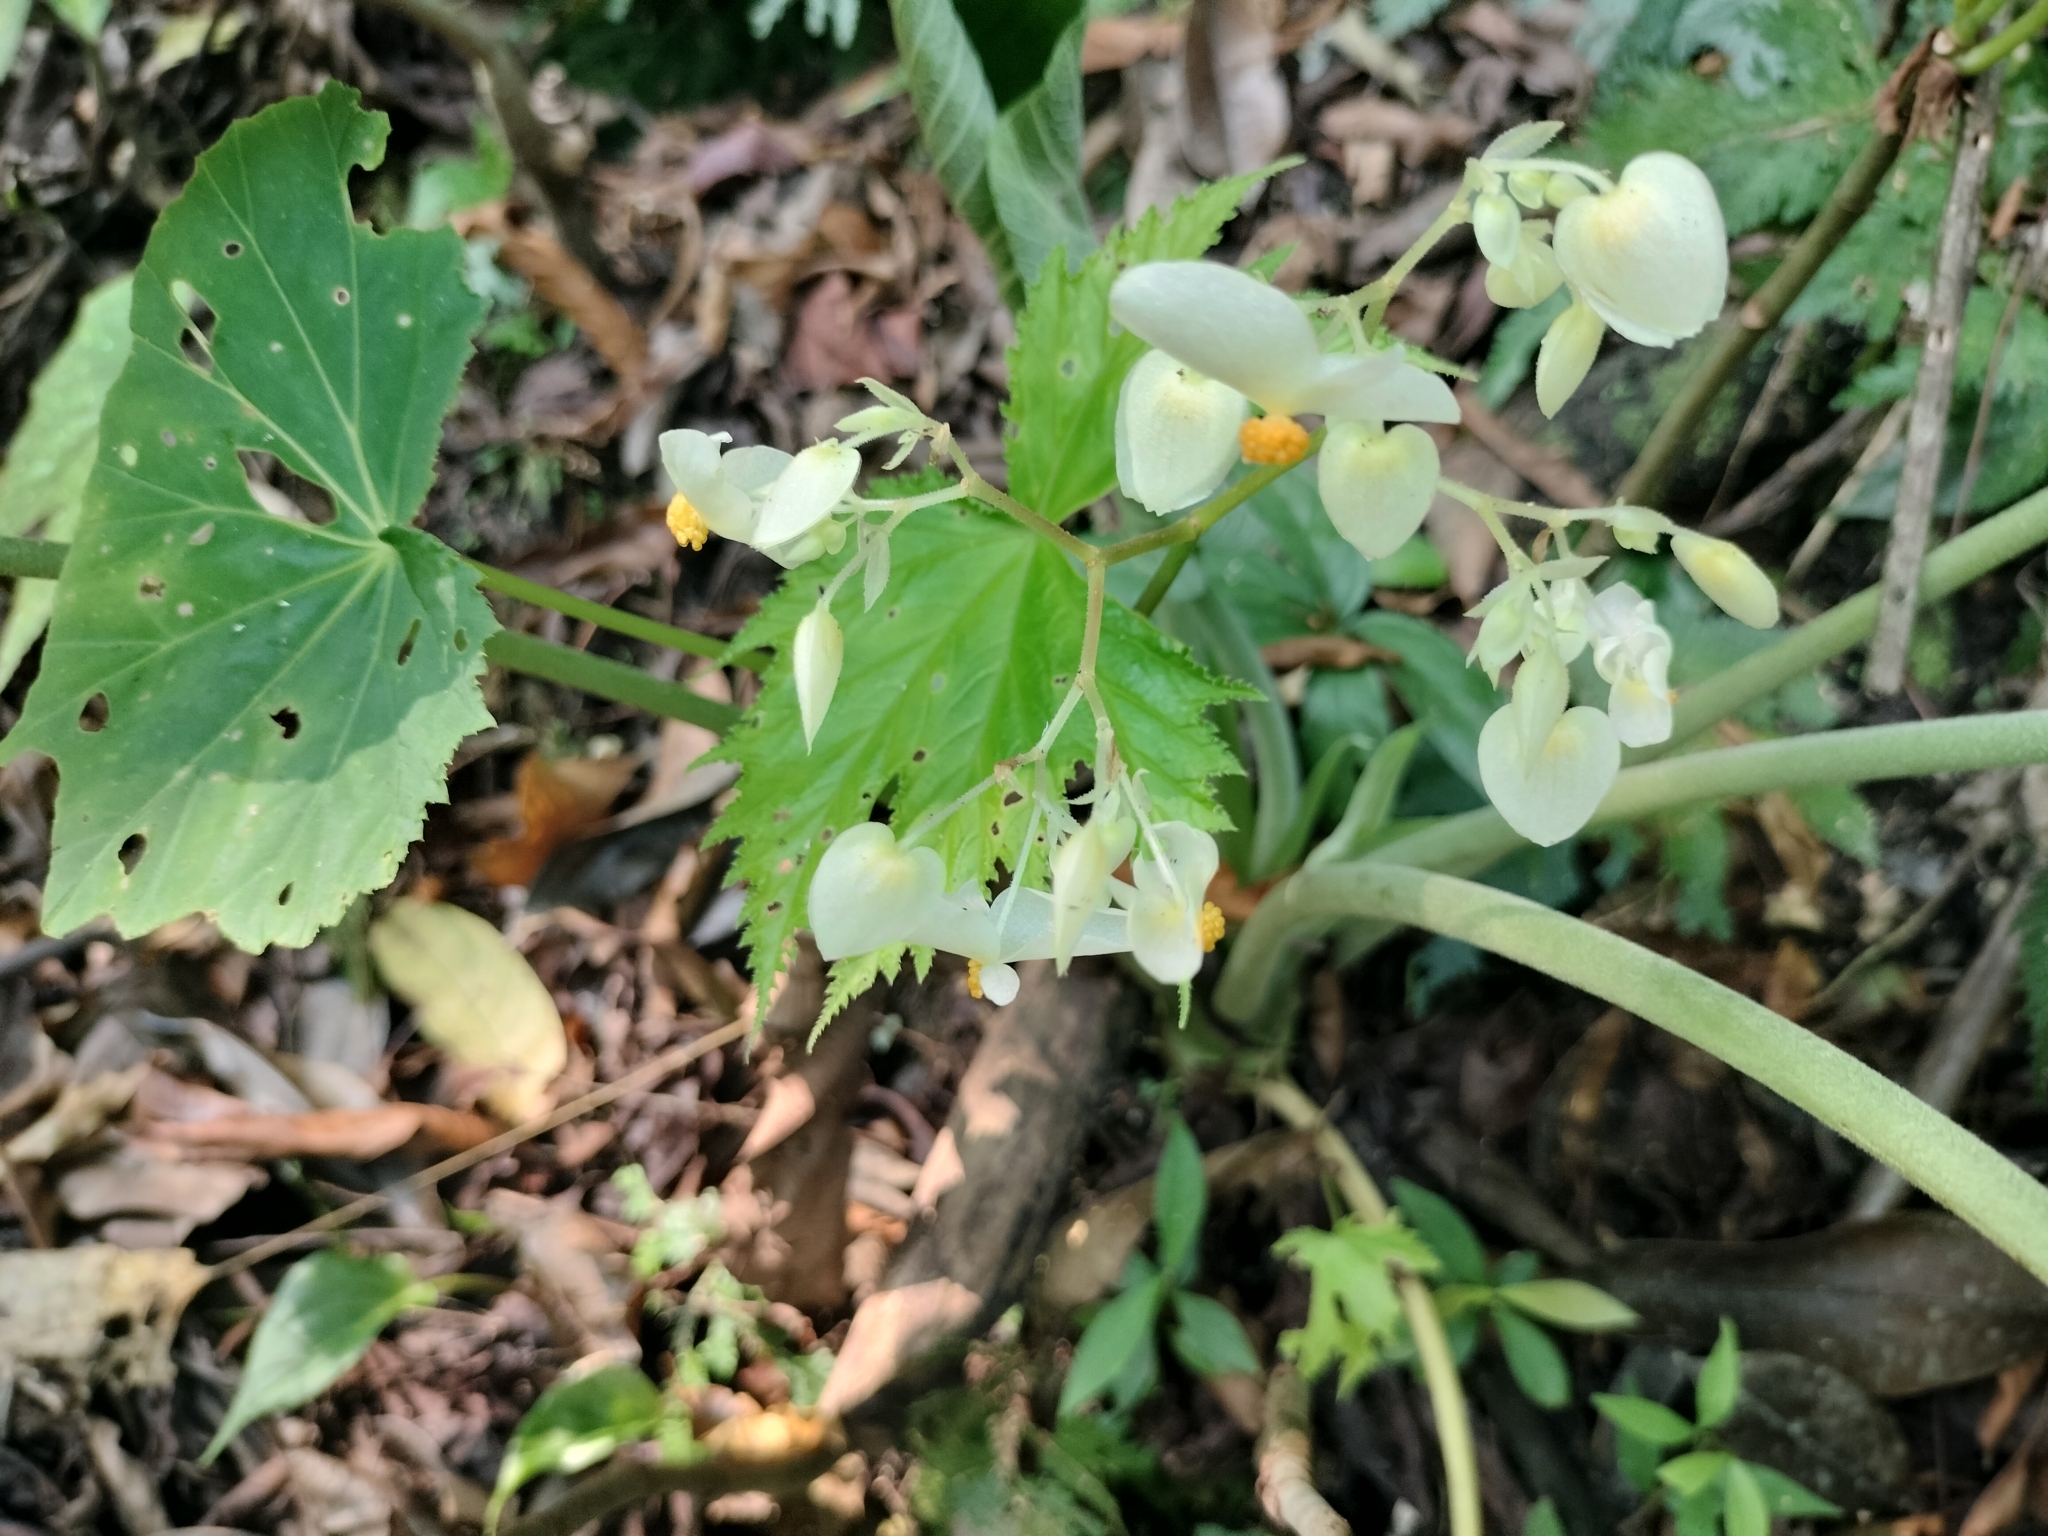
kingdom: Plantae
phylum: Tracheophyta
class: Magnoliopsida
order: Cucurbitales
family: Begoniaceae
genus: Begonia
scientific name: Begonia wollnyi
